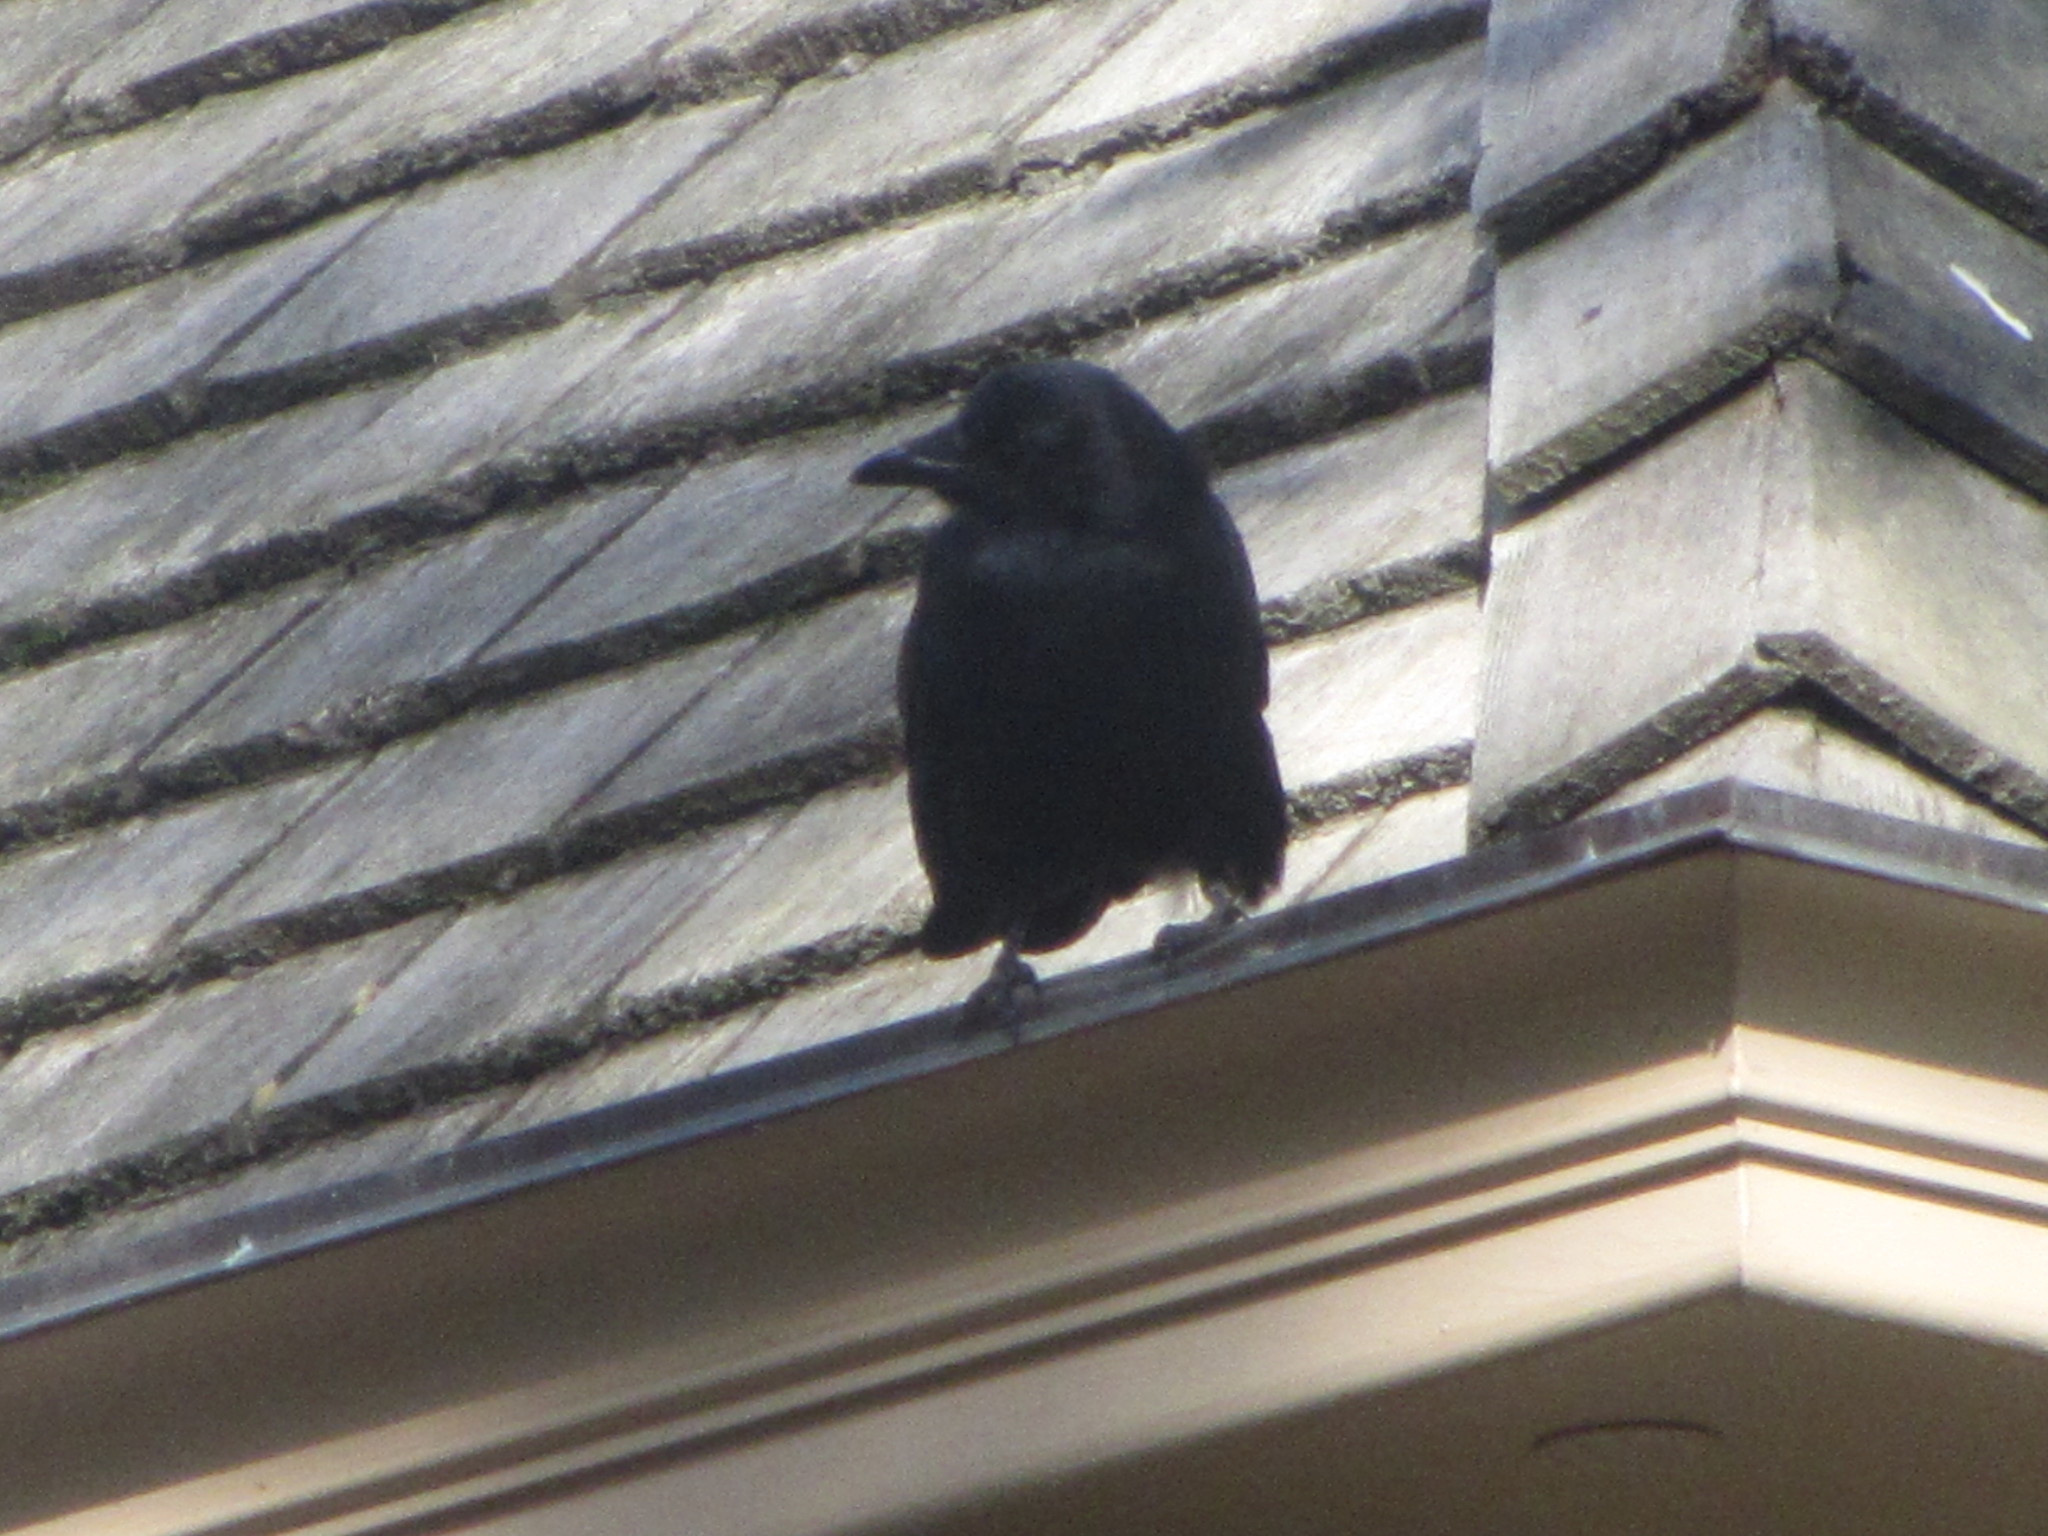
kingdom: Animalia
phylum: Chordata
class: Aves
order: Passeriformes
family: Corvidae
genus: Corvus
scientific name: Corvus brachyrhynchos
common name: American crow
